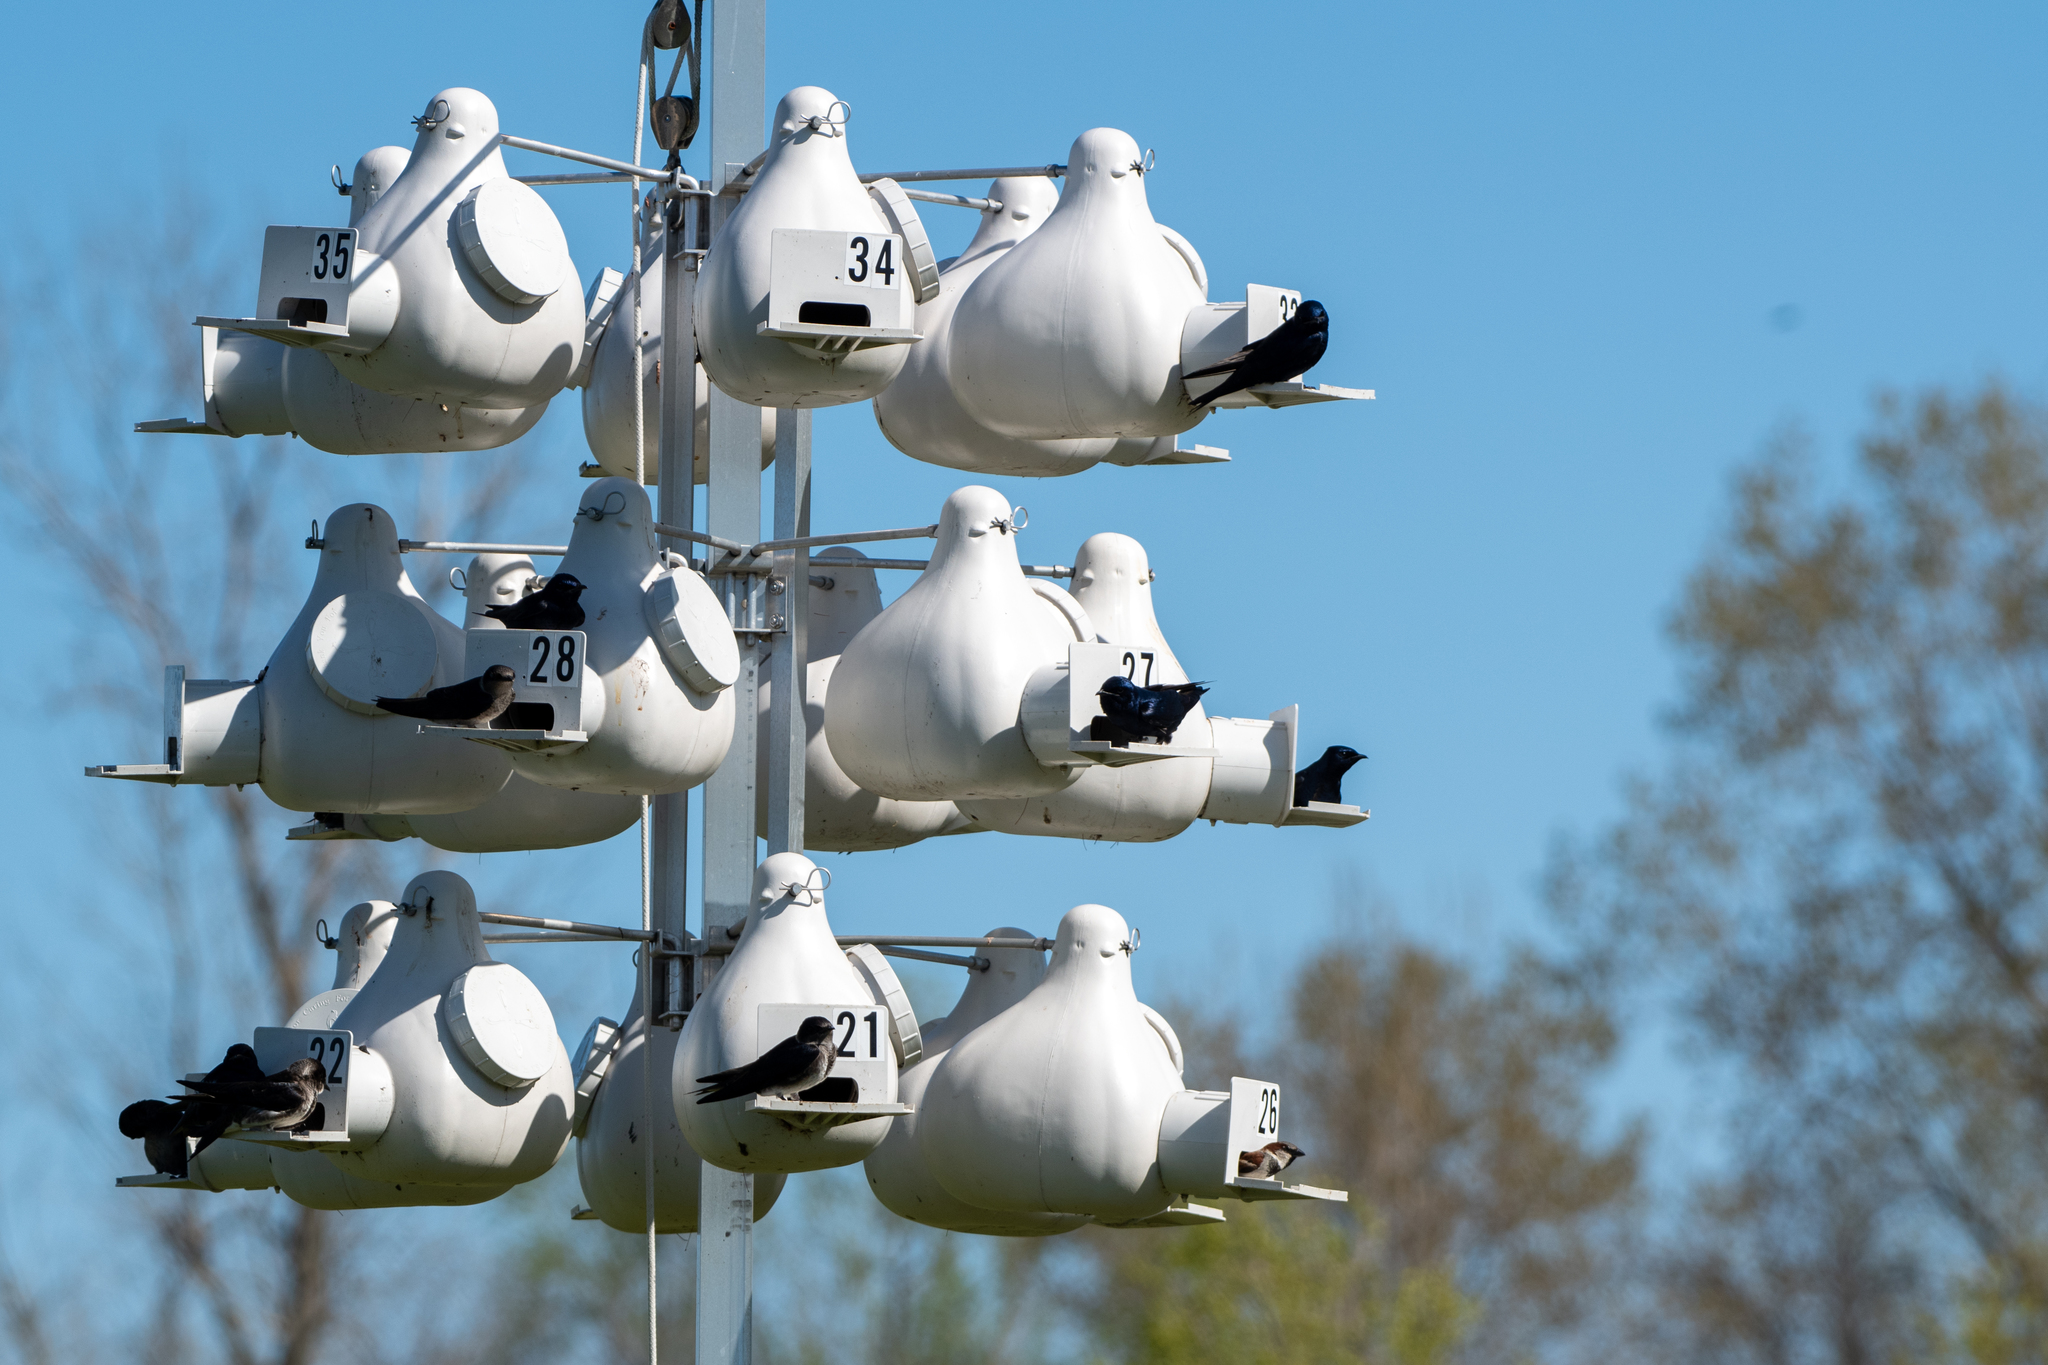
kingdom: Animalia
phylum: Chordata
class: Aves
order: Passeriformes
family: Hirundinidae
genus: Progne
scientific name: Progne subis
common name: Purple martin
